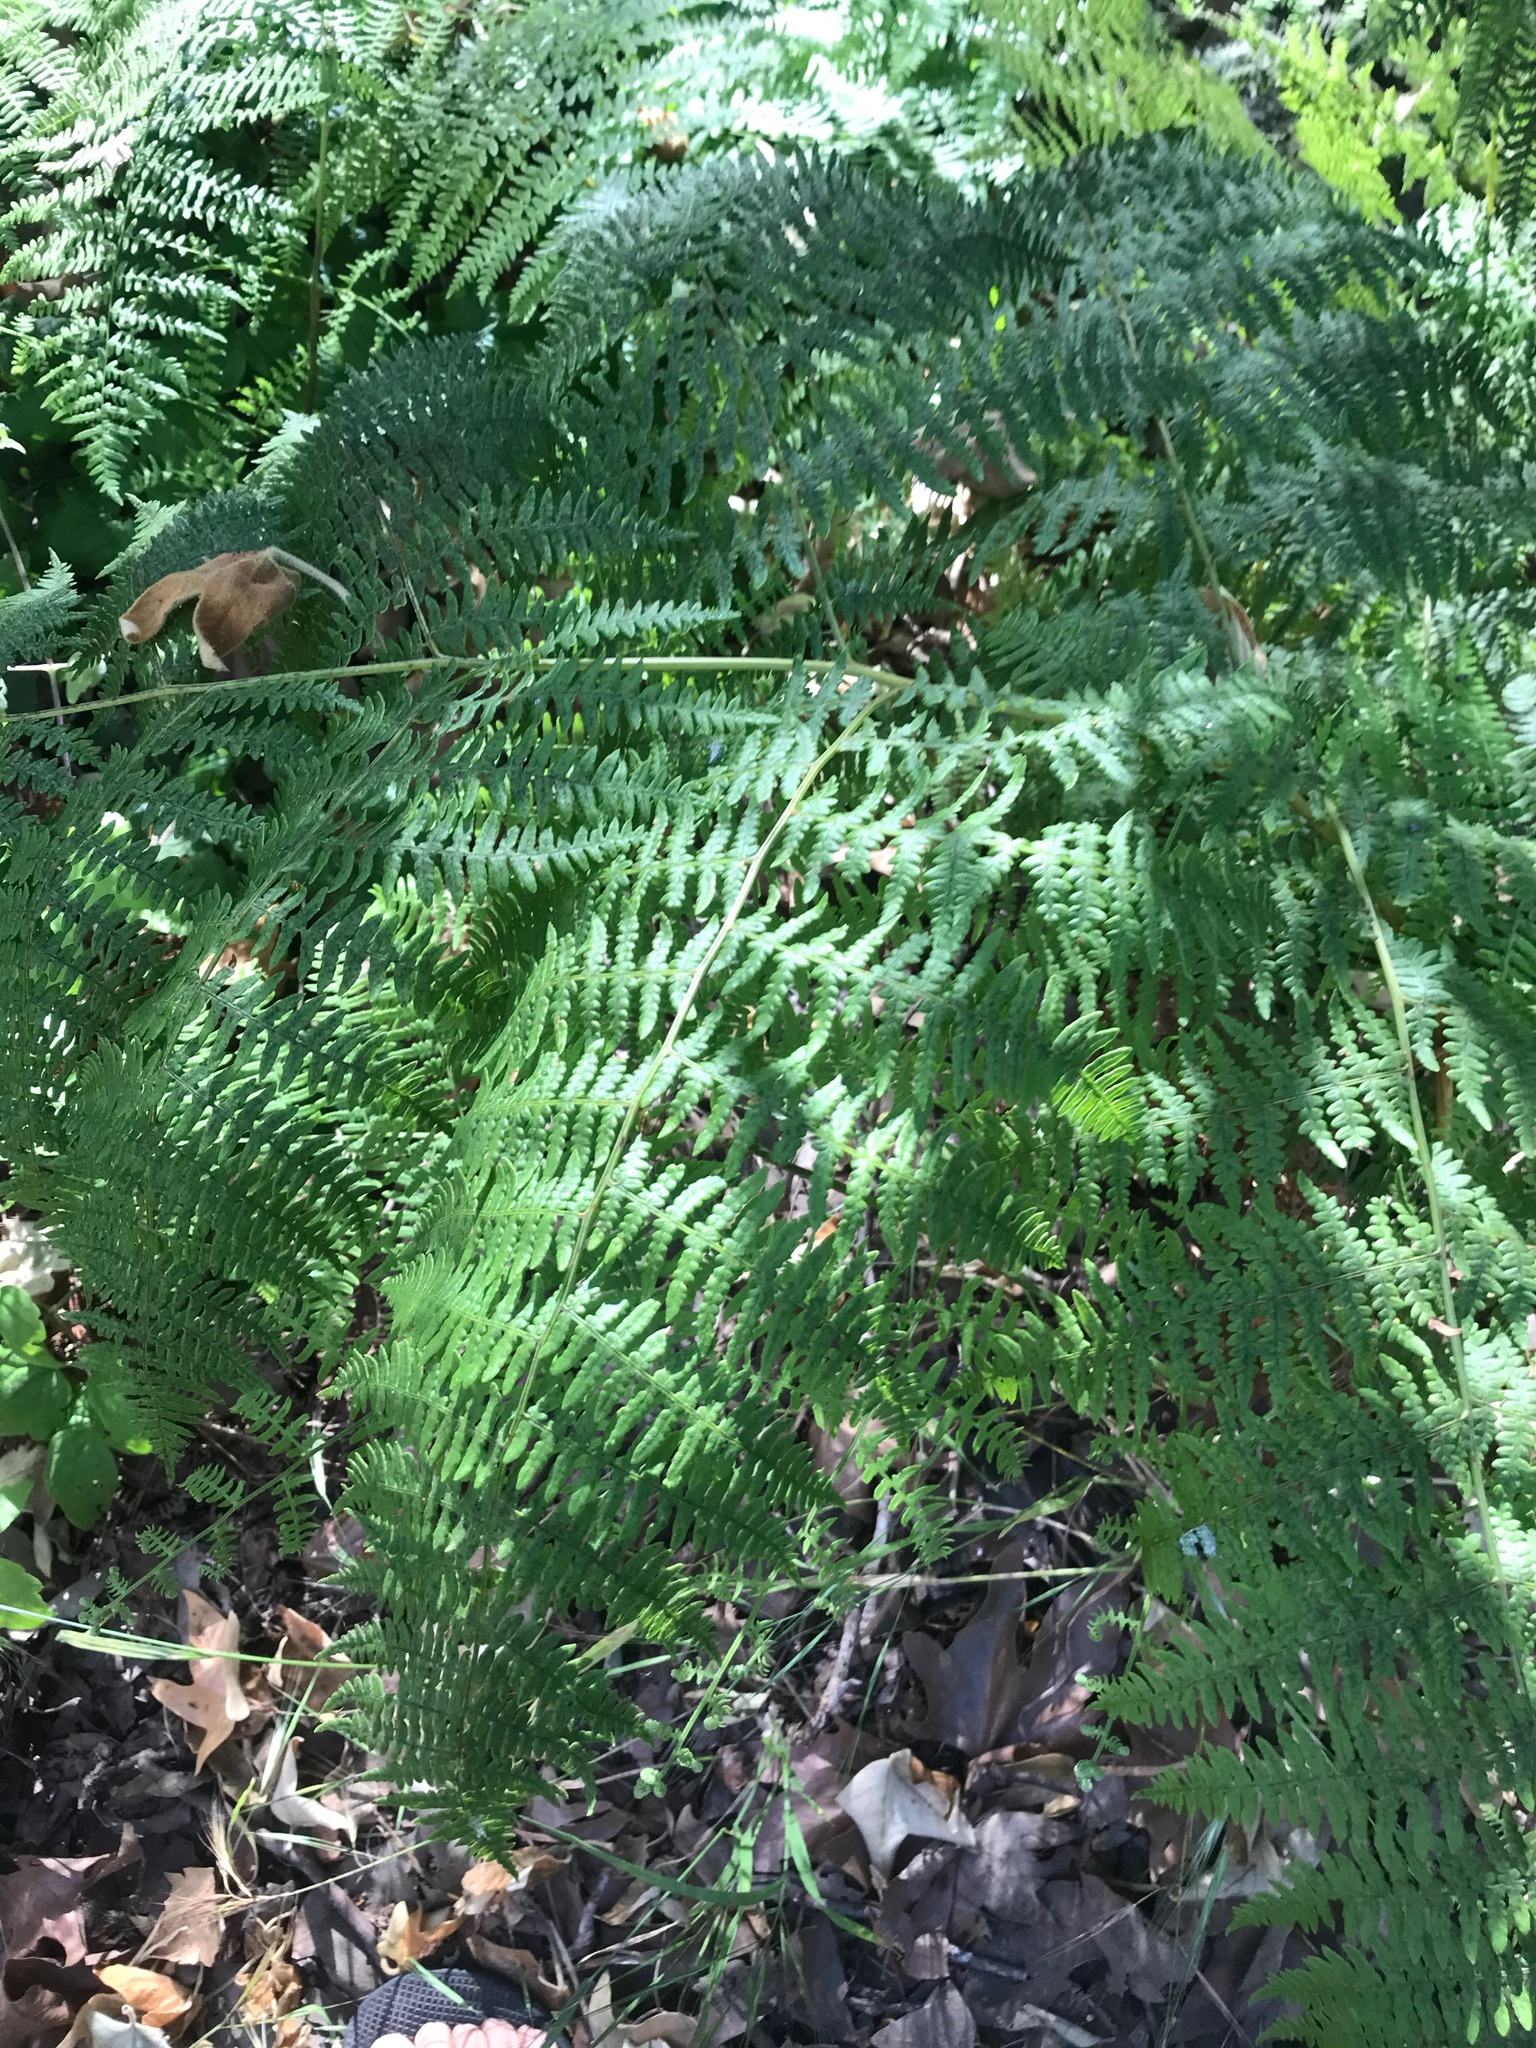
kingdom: Plantae
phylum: Tracheophyta
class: Polypodiopsida
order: Polypodiales
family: Dennstaedtiaceae
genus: Pteridium
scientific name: Pteridium aquilinum
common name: Bracken
